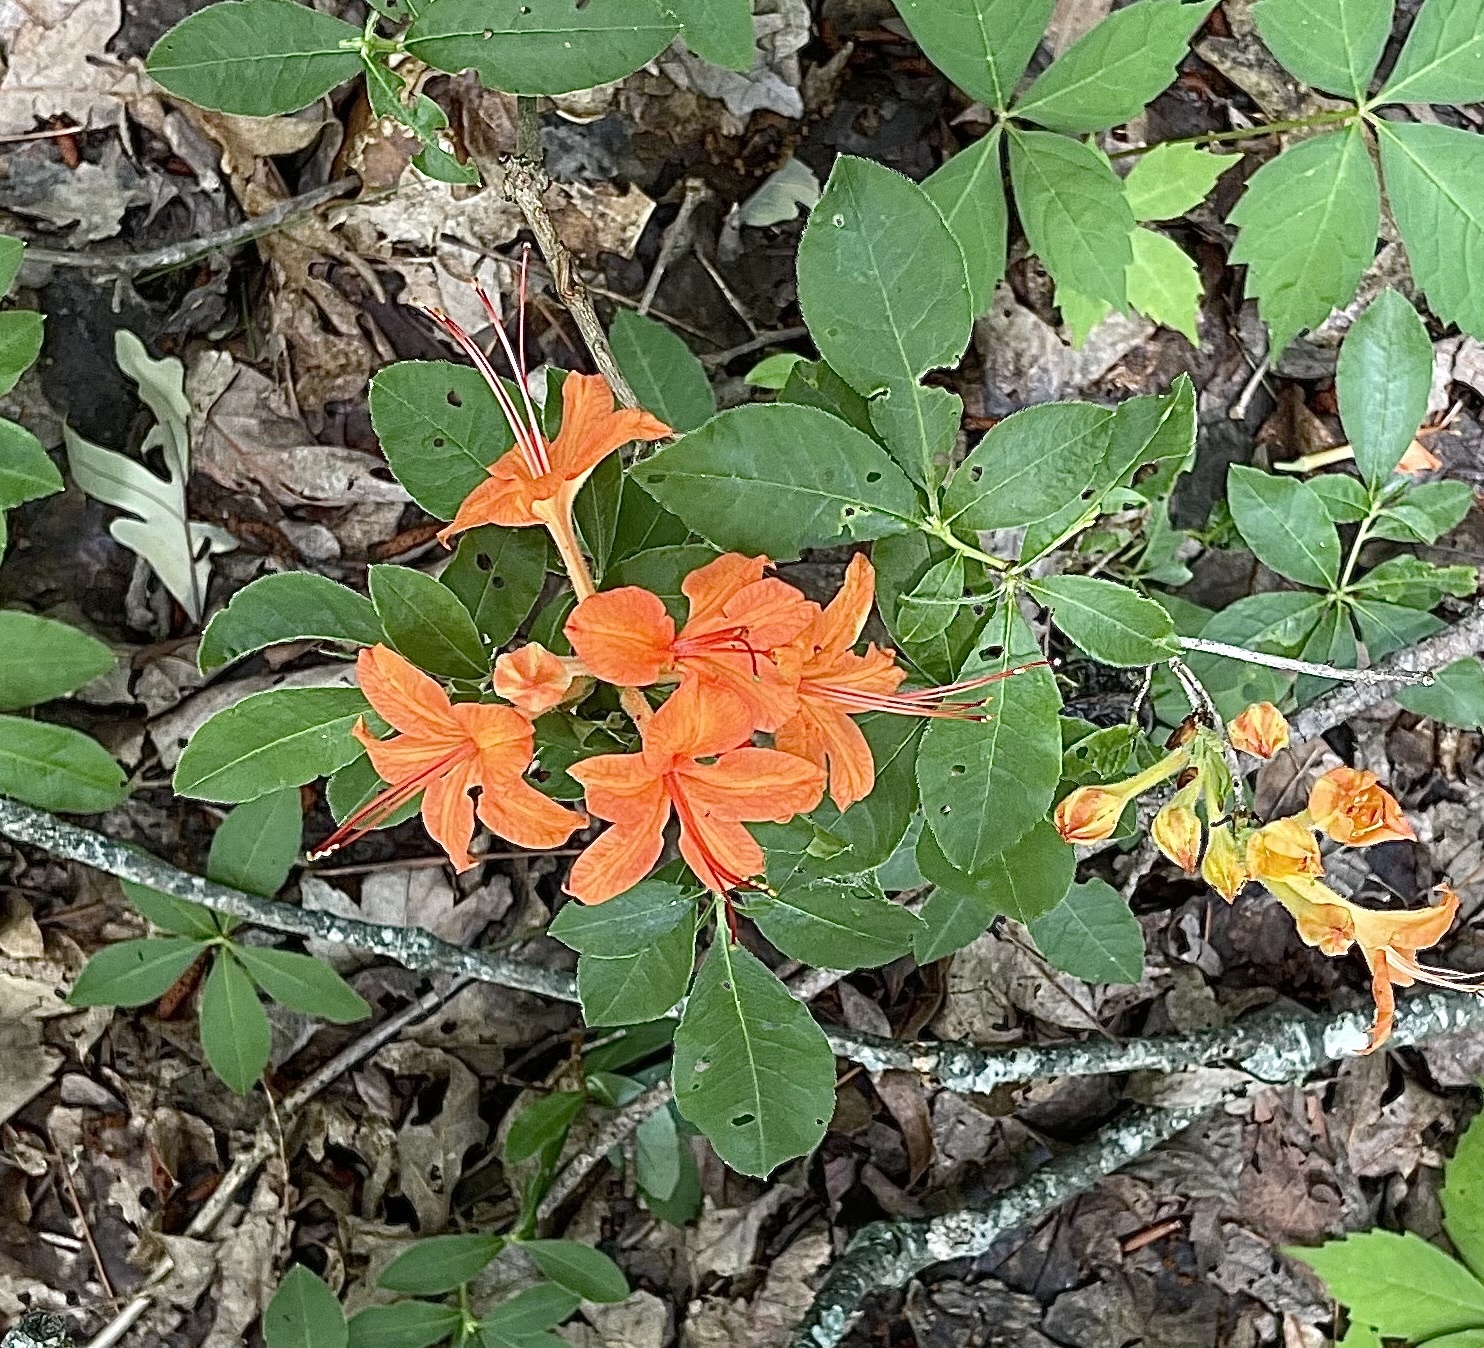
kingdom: Plantae
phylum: Tracheophyta
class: Magnoliopsida
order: Ericales
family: Ericaceae
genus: Rhododendron
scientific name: Rhododendron calendulaceum
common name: Flame azalea
